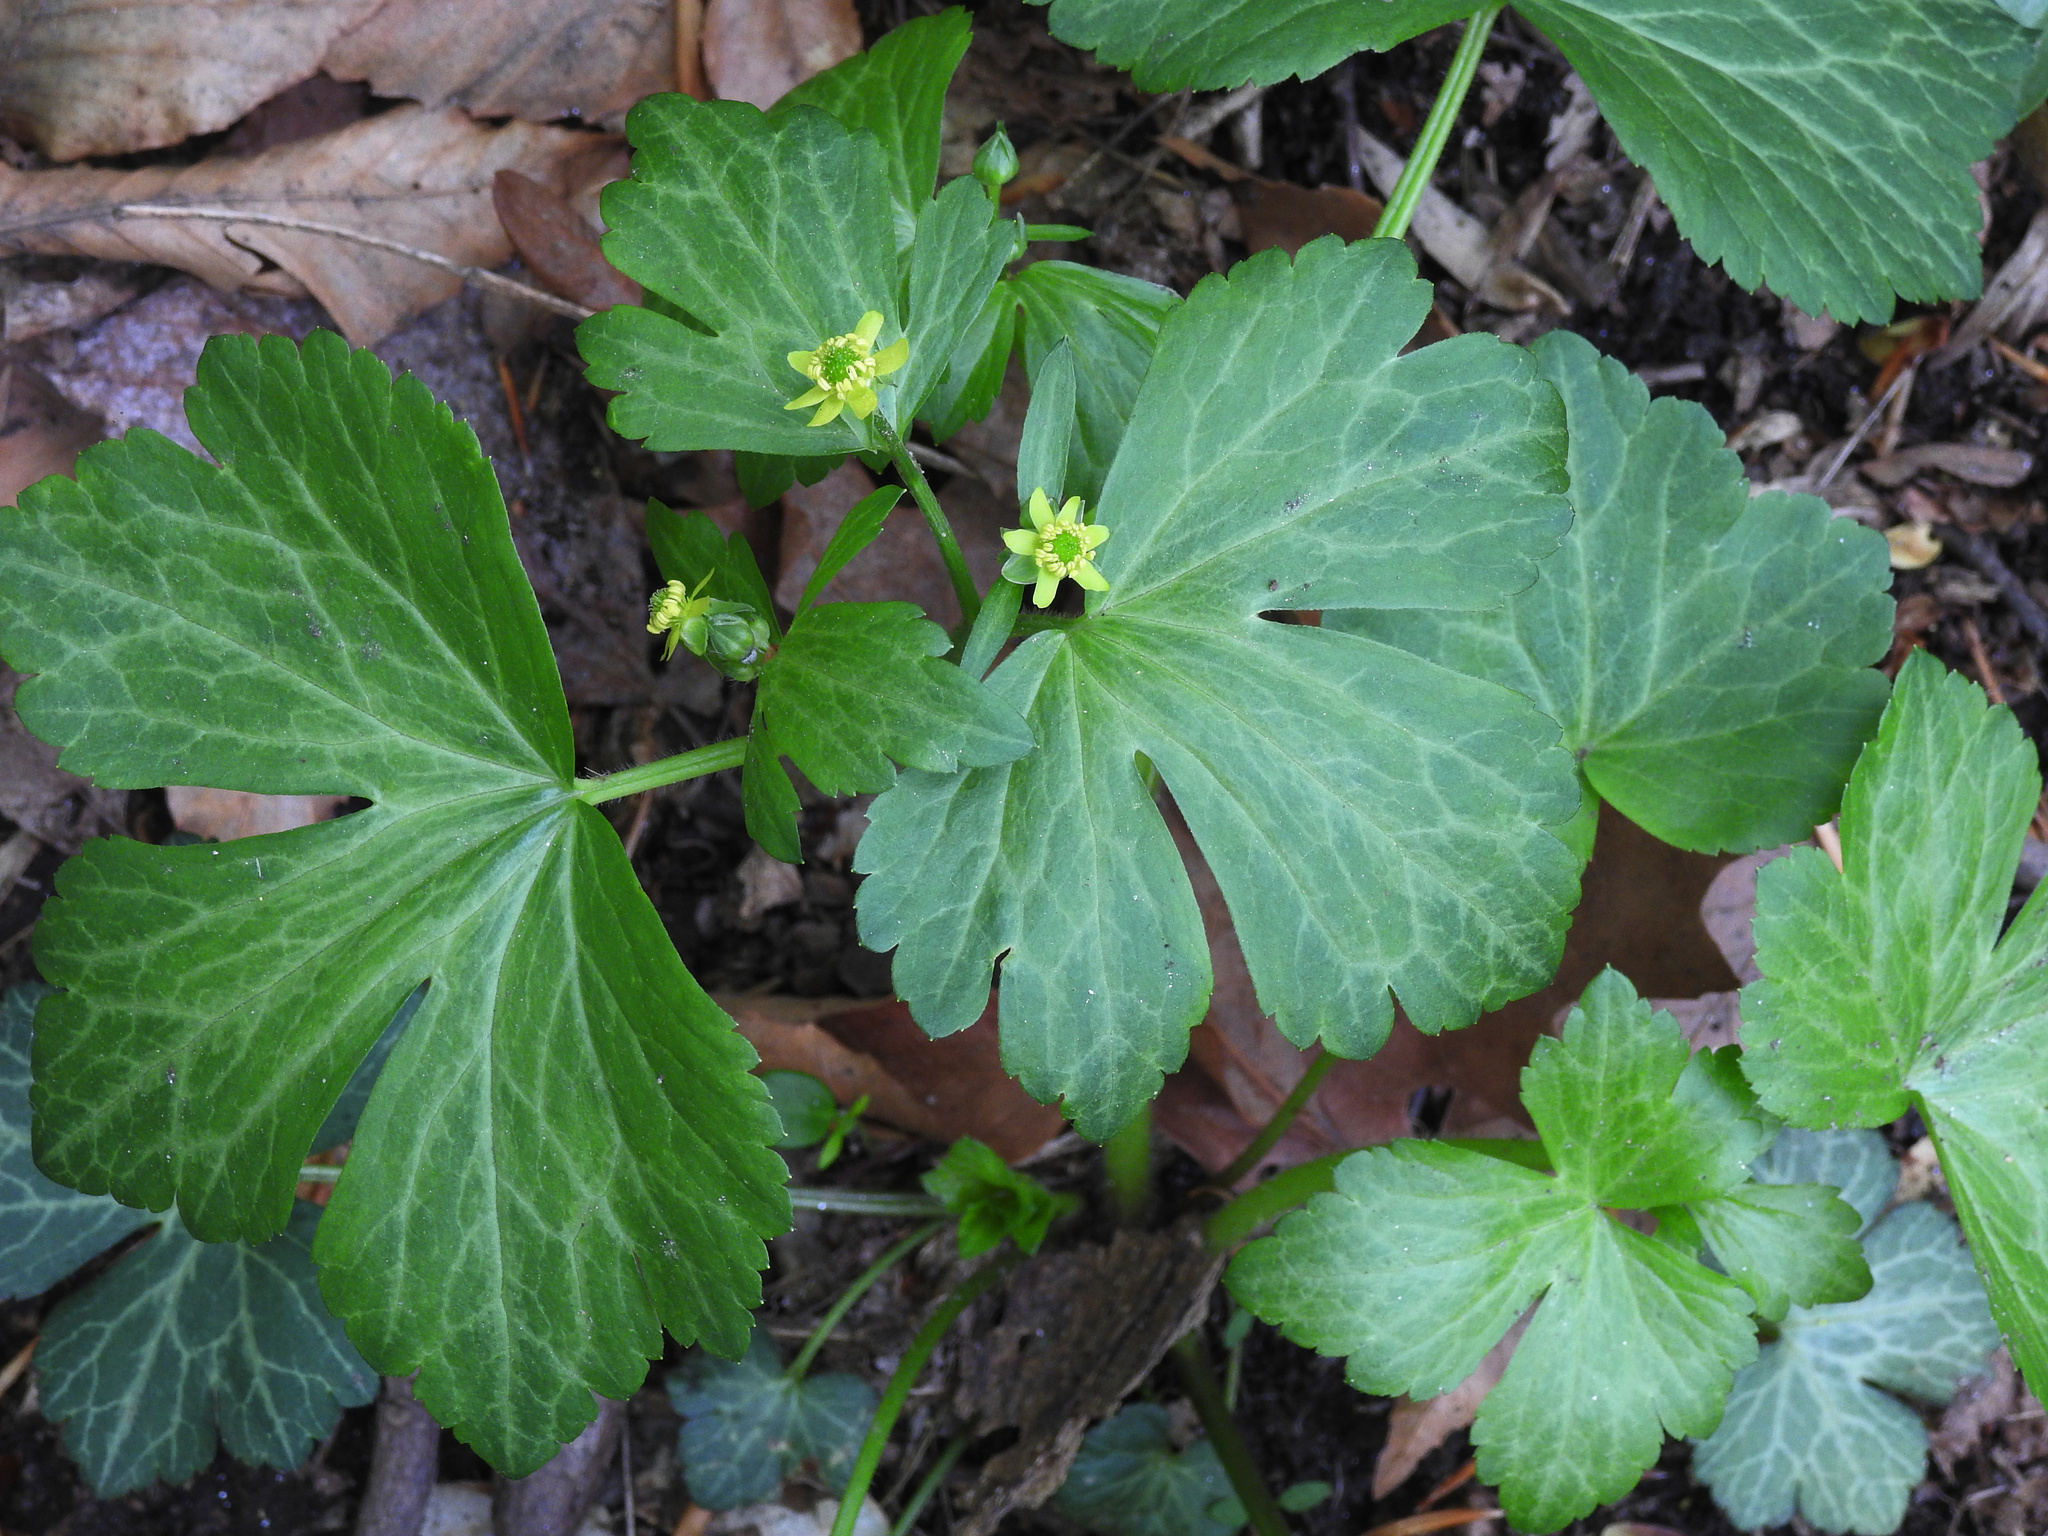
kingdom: Plantae
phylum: Tracheophyta
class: Magnoliopsida
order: Ranunculales
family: Ranunculaceae
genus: Ranunculus
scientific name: Ranunculus recurvatus
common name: Blisterwort
